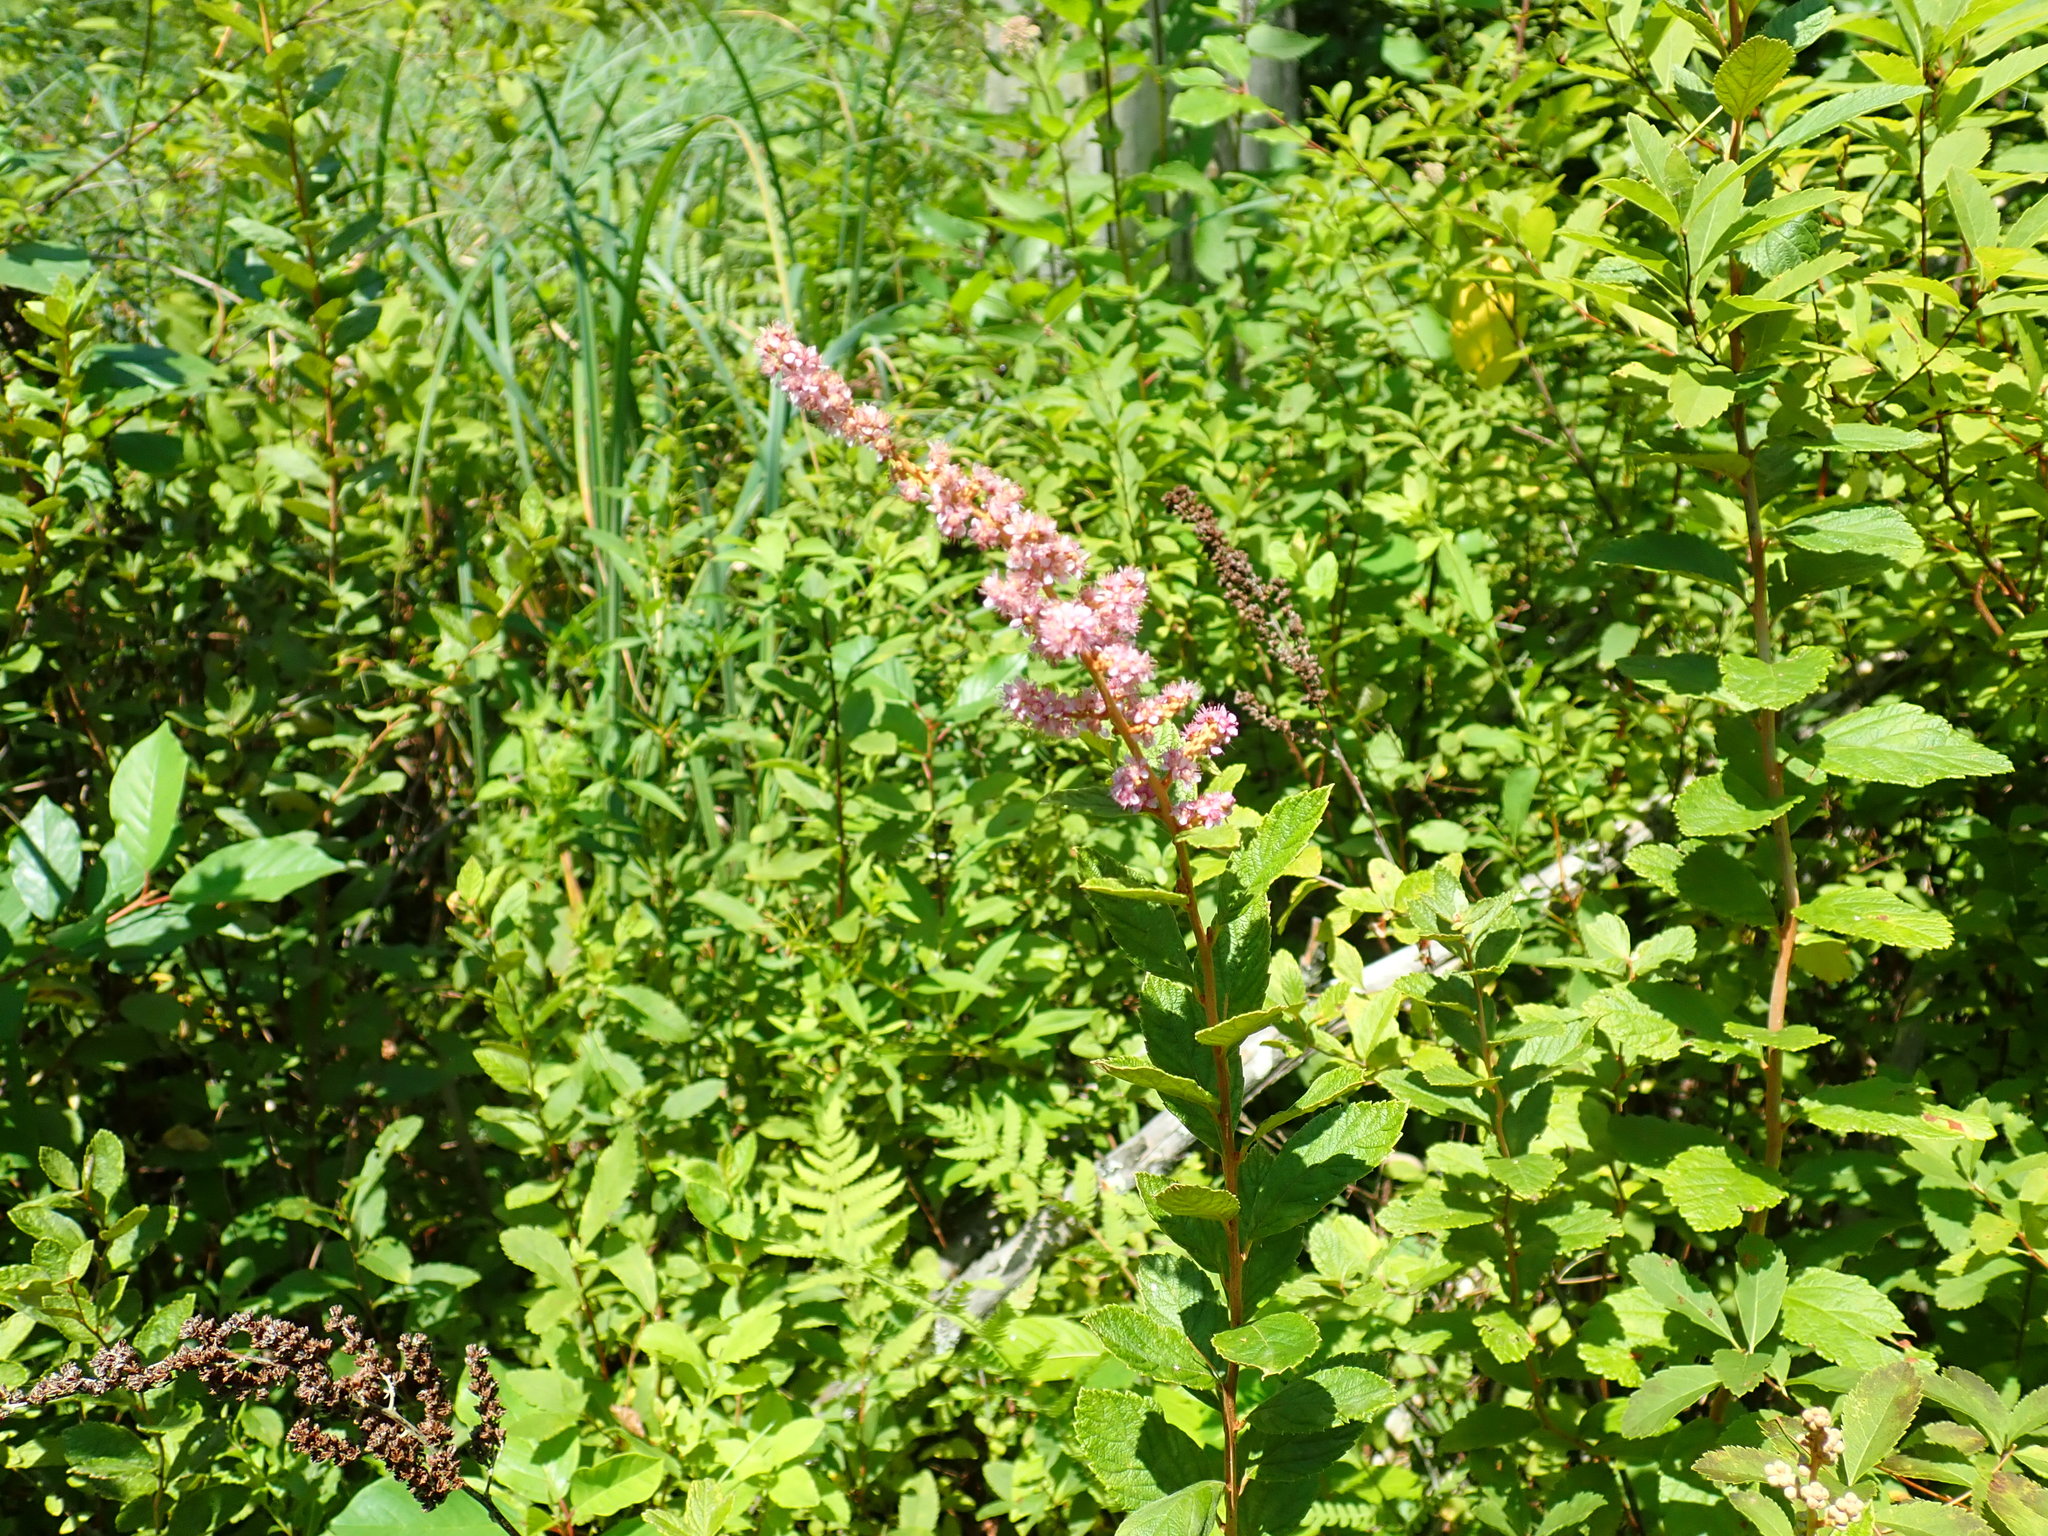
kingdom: Plantae
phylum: Tracheophyta
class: Magnoliopsida
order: Rosales
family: Rosaceae
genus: Spiraea
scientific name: Spiraea tomentosa
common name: Hardhack
